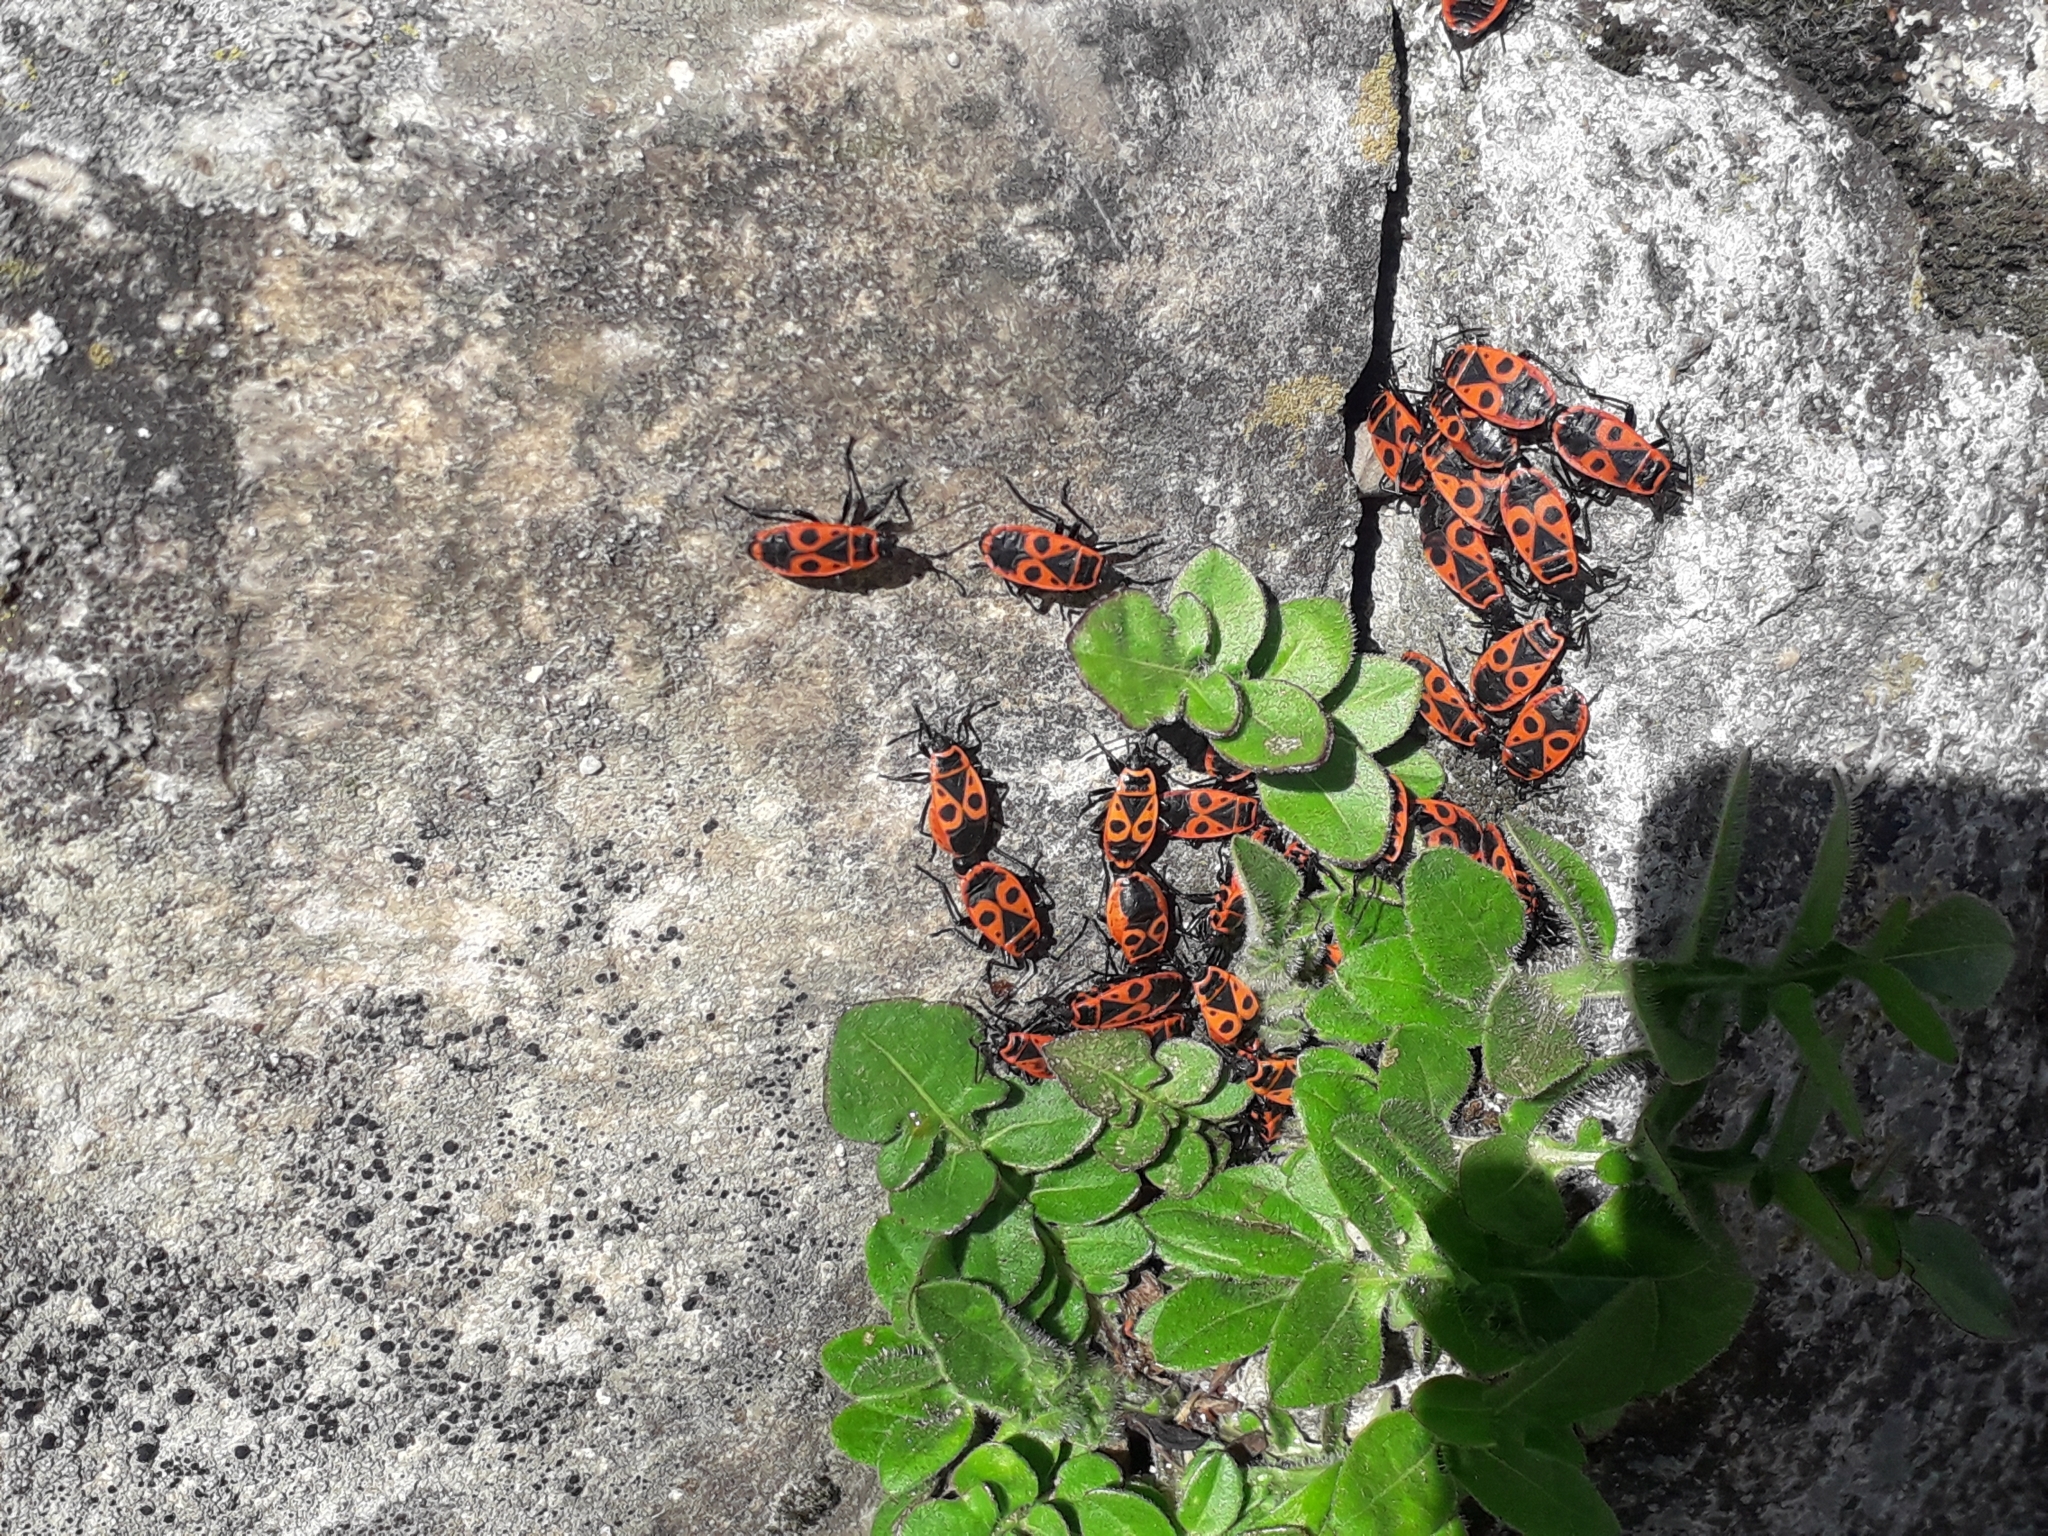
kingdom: Animalia
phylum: Arthropoda
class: Insecta
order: Hemiptera
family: Pyrrhocoridae
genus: Pyrrhocoris
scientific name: Pyrrhocoris apterus
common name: Firebug
